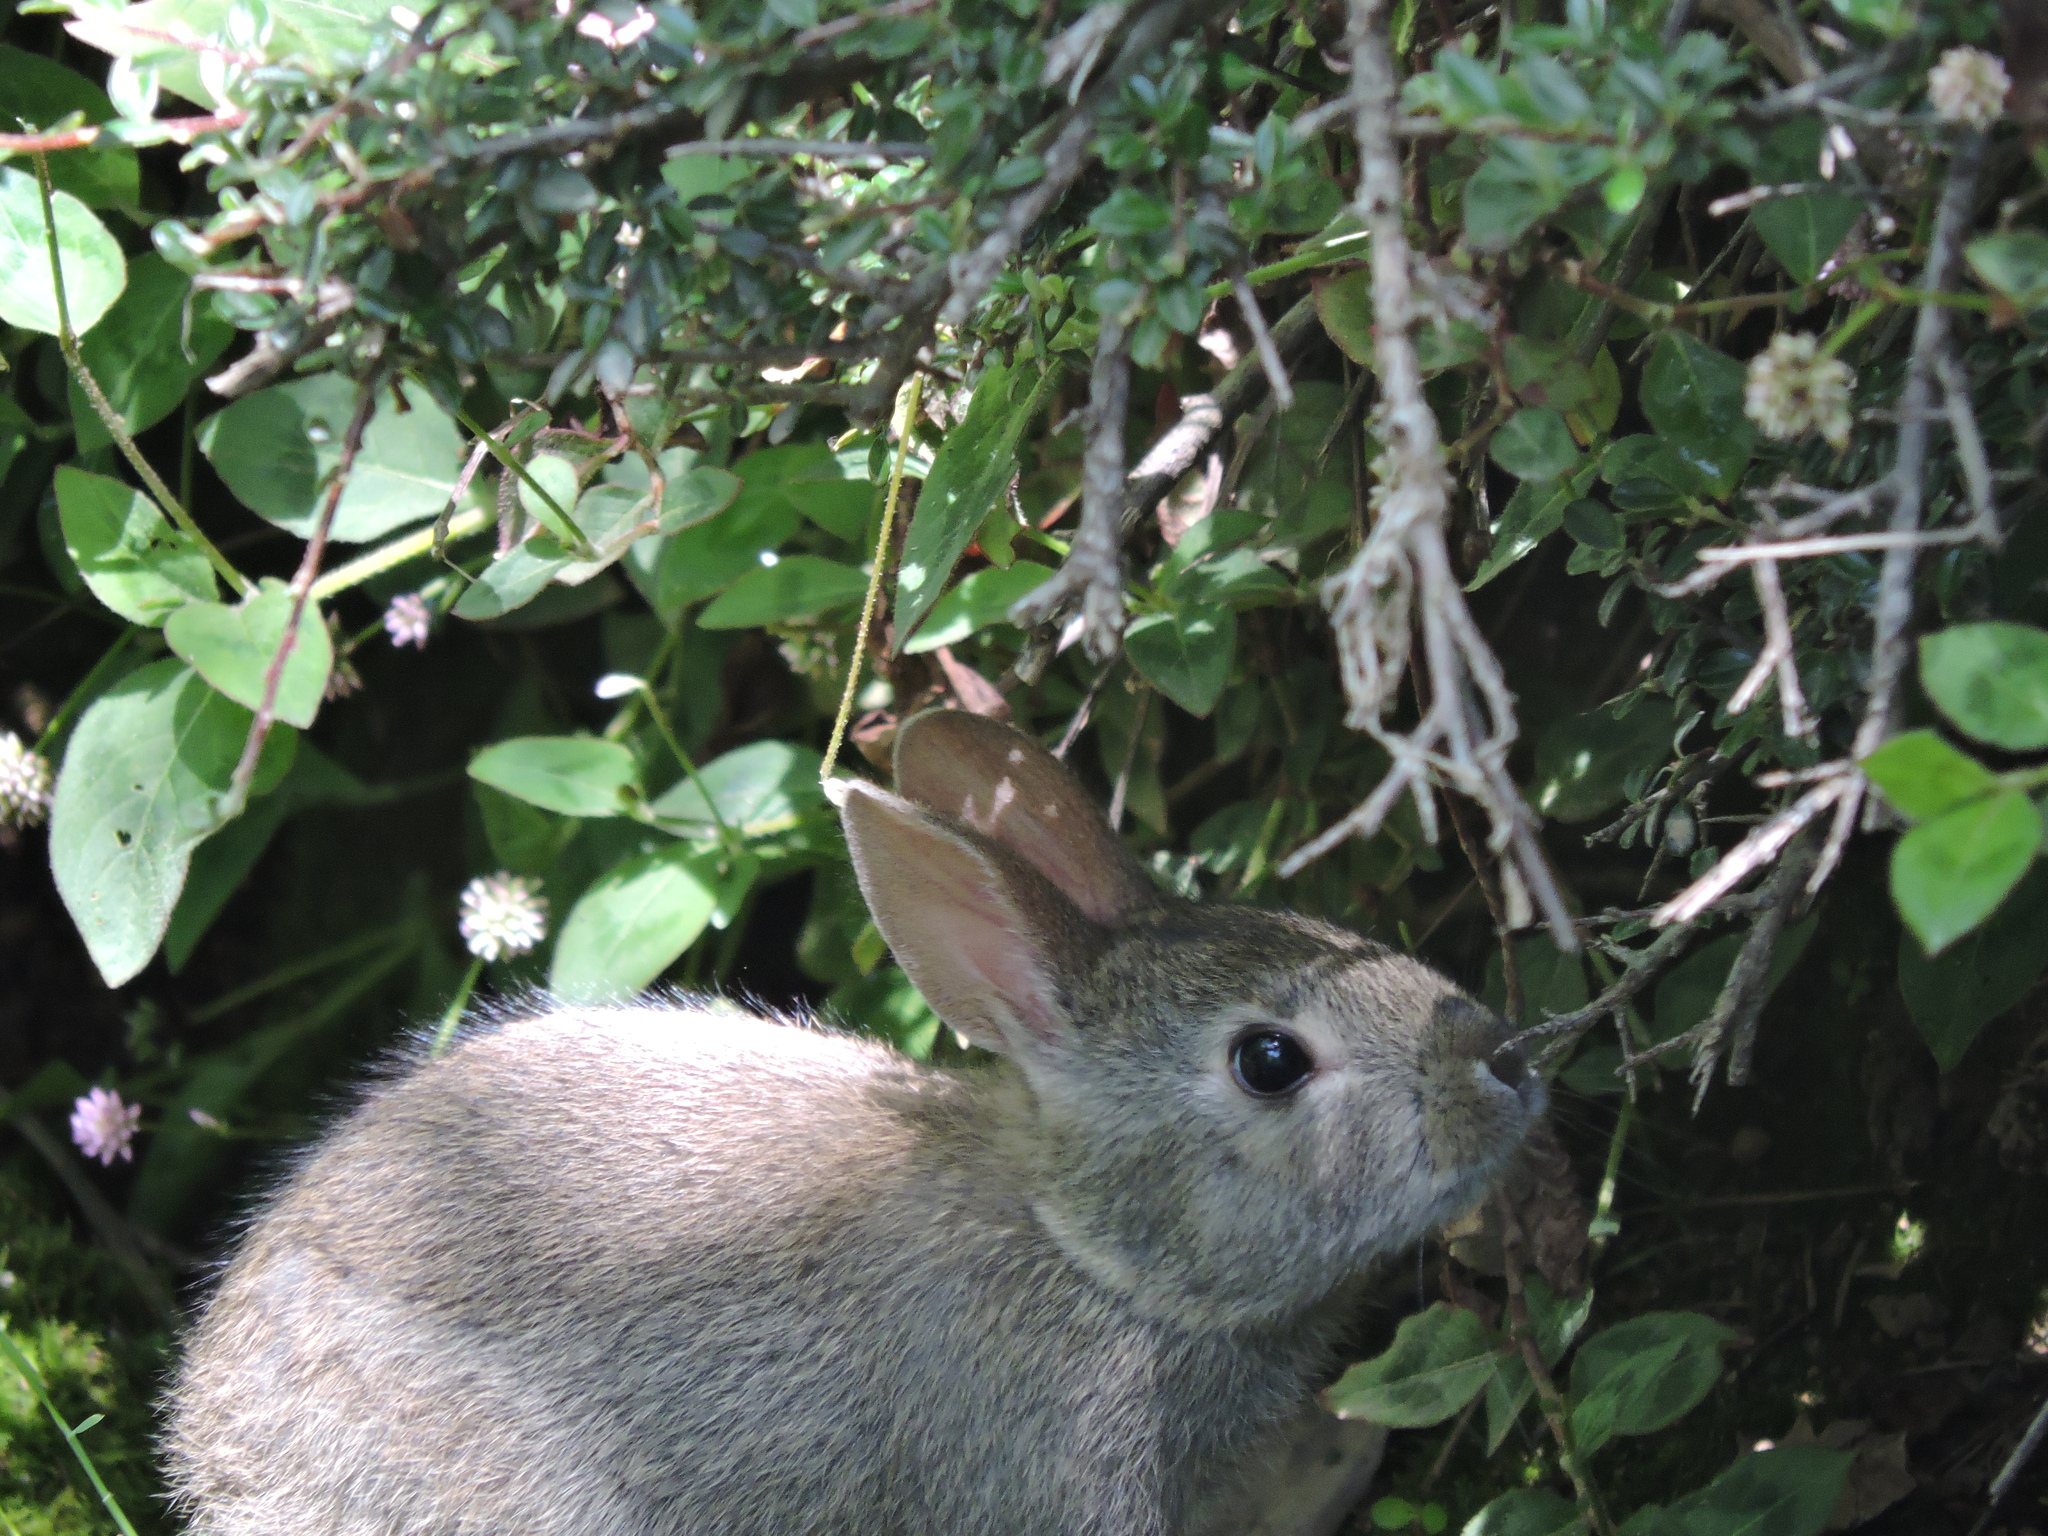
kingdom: Animalia
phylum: Chordata
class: Mammalia
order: Lagomorpha
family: Leporidae
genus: Sylvilagus
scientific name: Sylvilagus bachmani
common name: Brush rabbit
